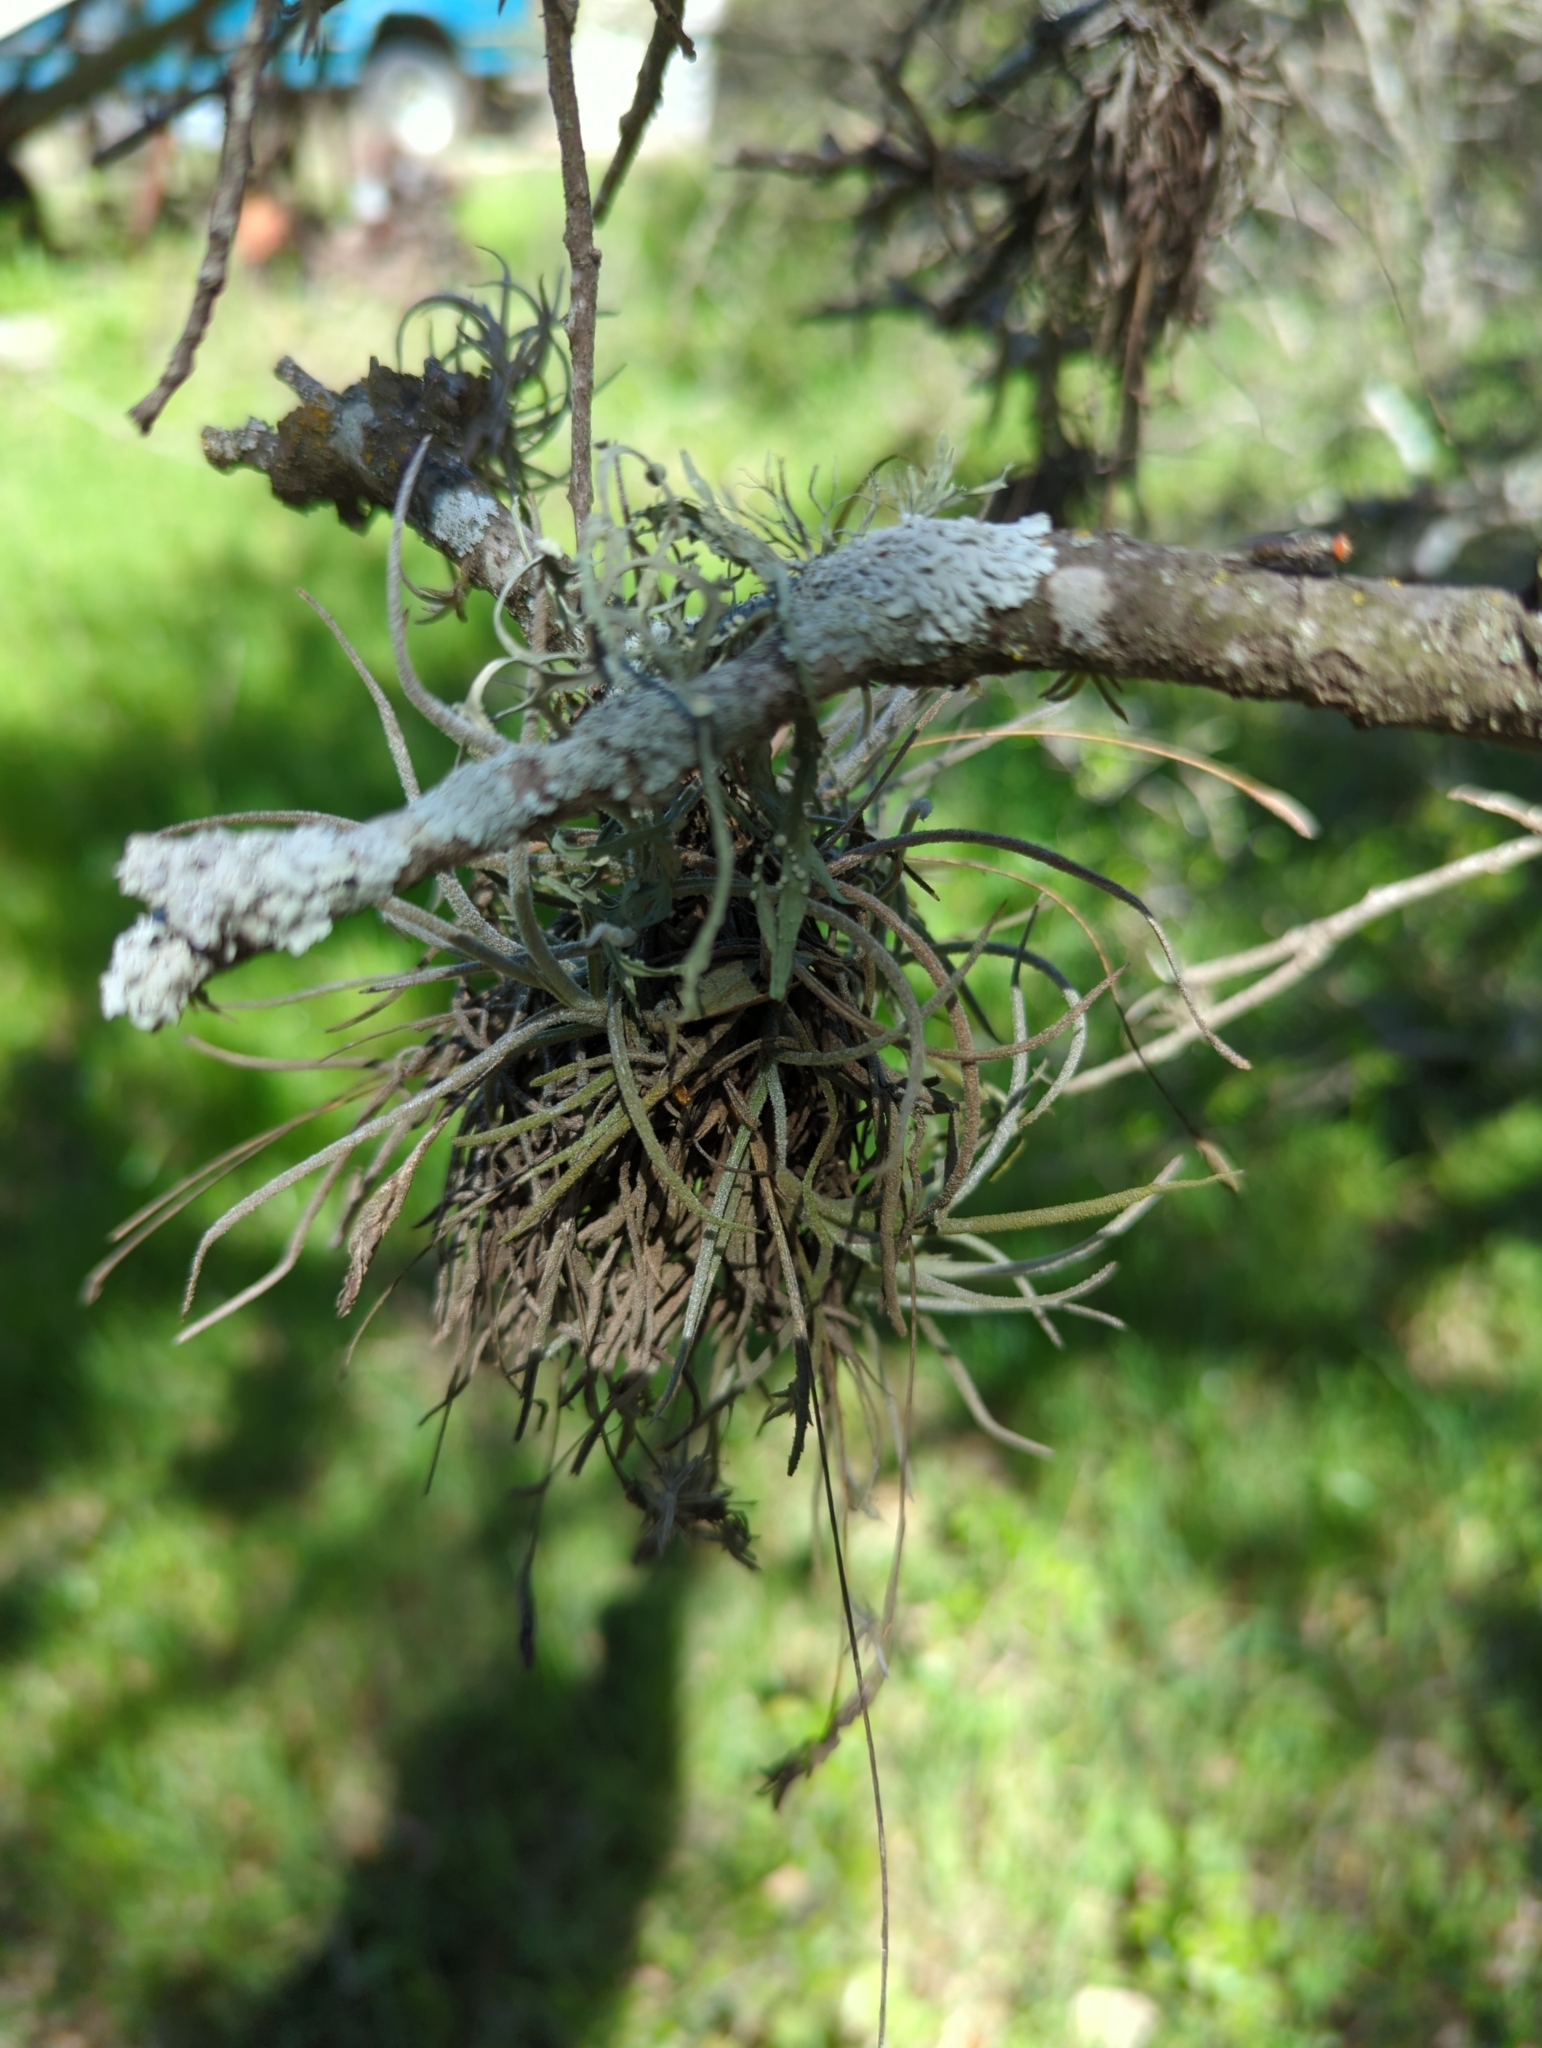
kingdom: Plantae
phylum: Tracheophyta
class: Liliopsida
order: Poales
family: Bromeliaceae
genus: Tillandsia
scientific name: Tillandsia recurvata
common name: Small ballmoss
